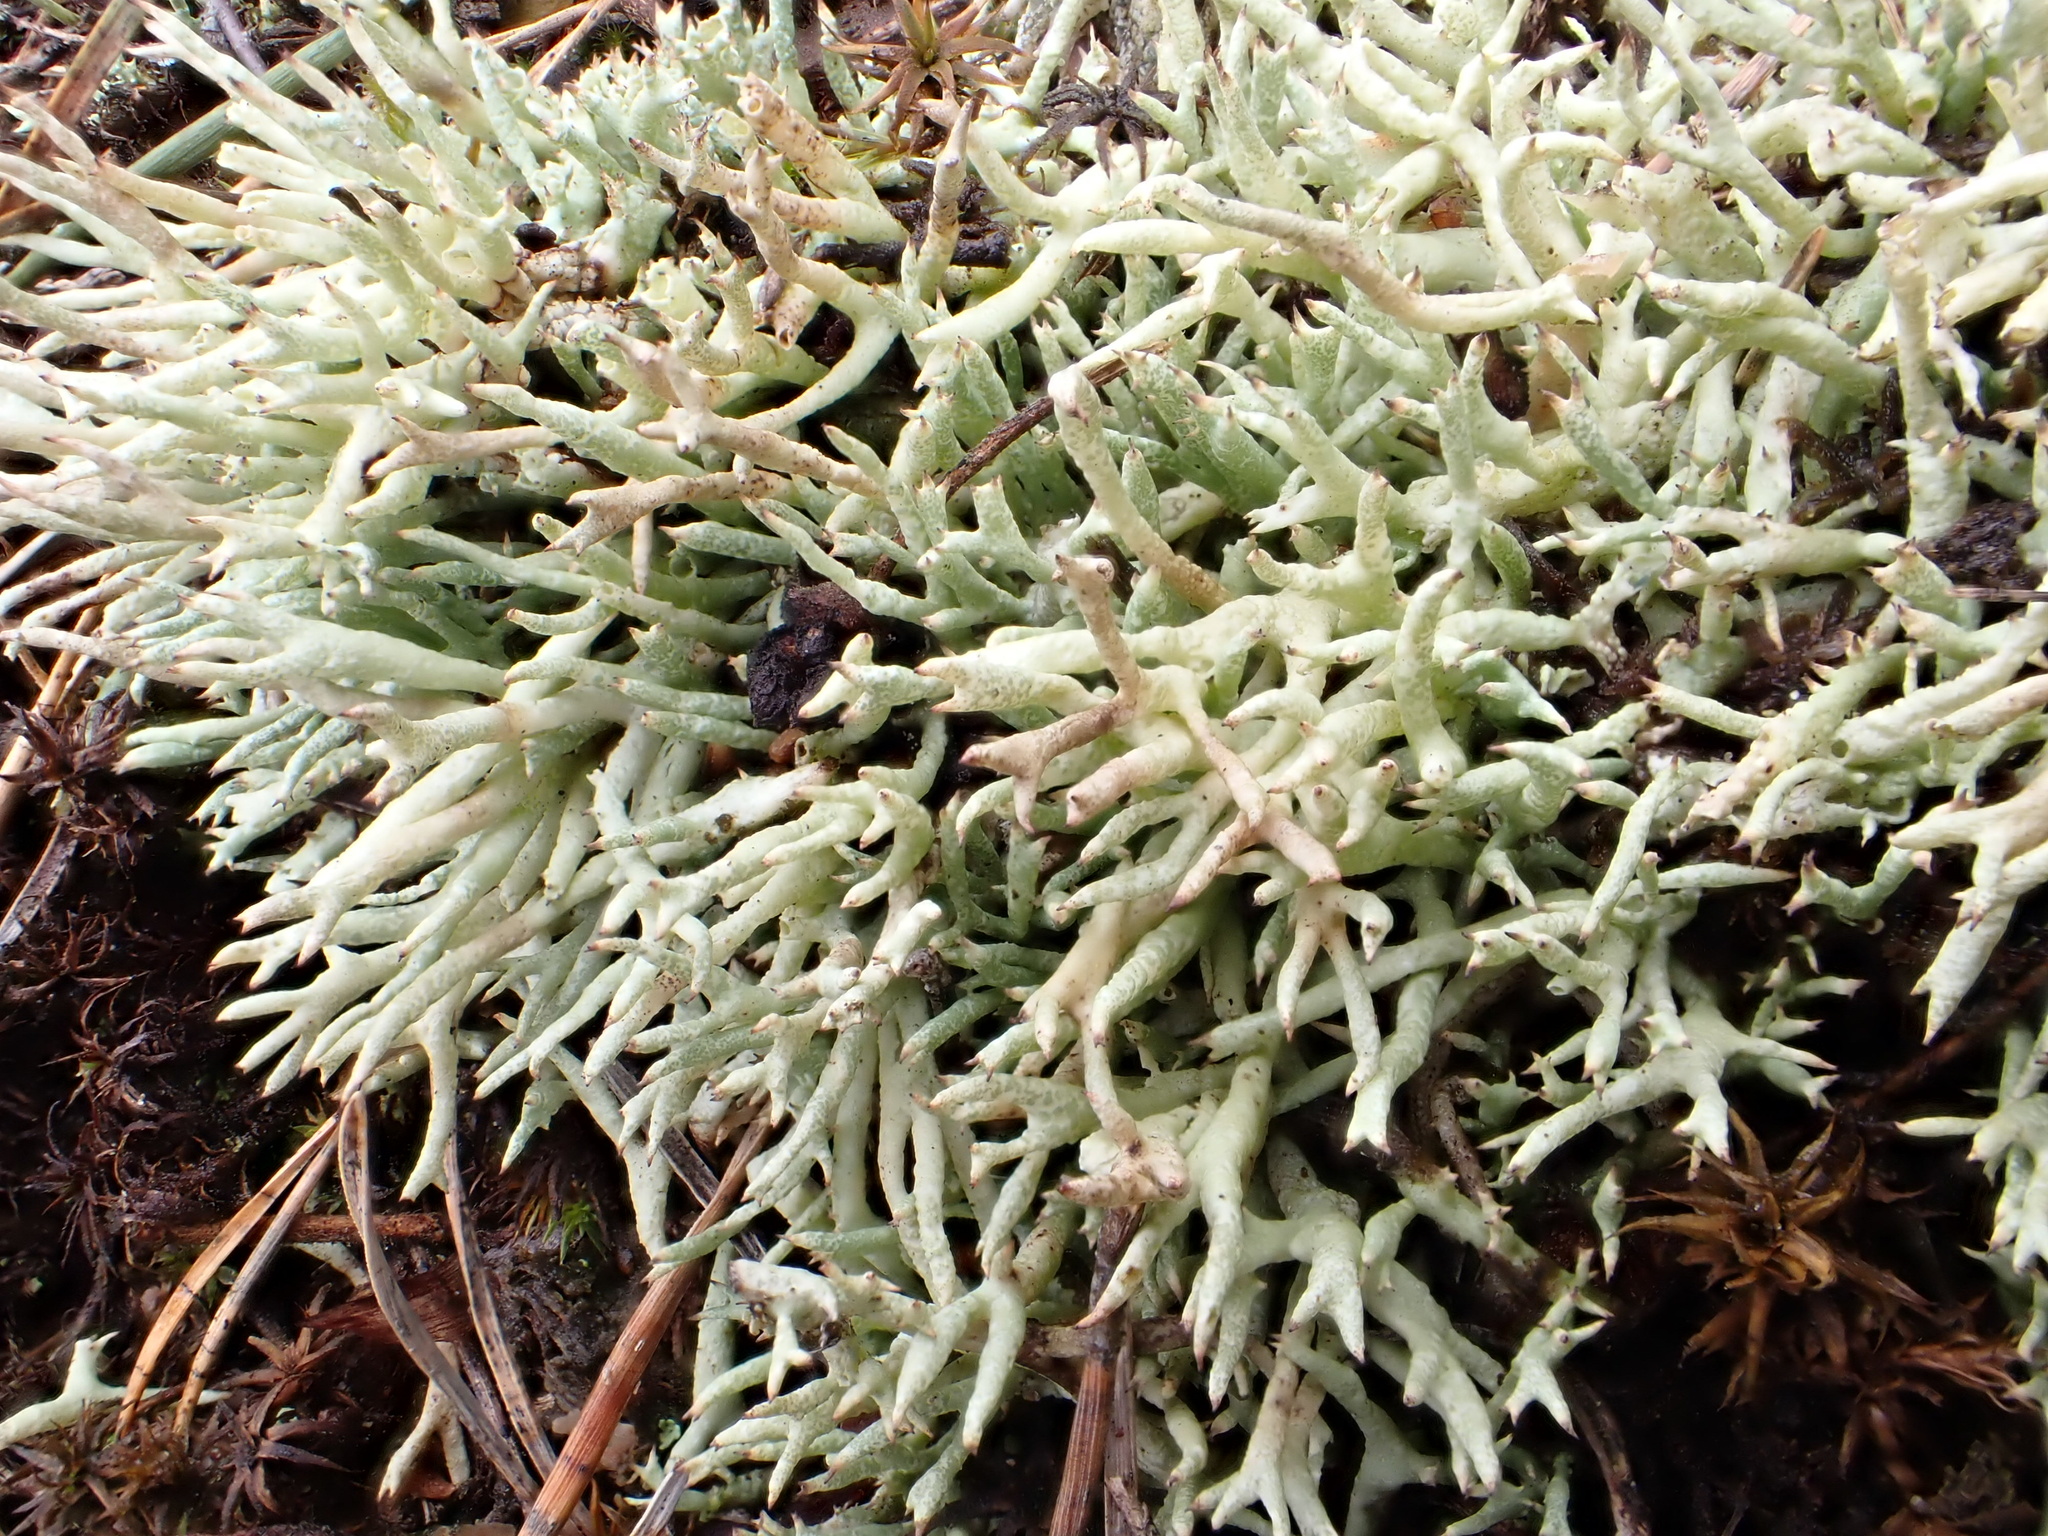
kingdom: Fungi
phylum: Ascomycota
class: Lecanoromycetes
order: Lecanorales
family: Cladoniaceae
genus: Cladonia
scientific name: Cladonia uncialis
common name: Thorn lichen
